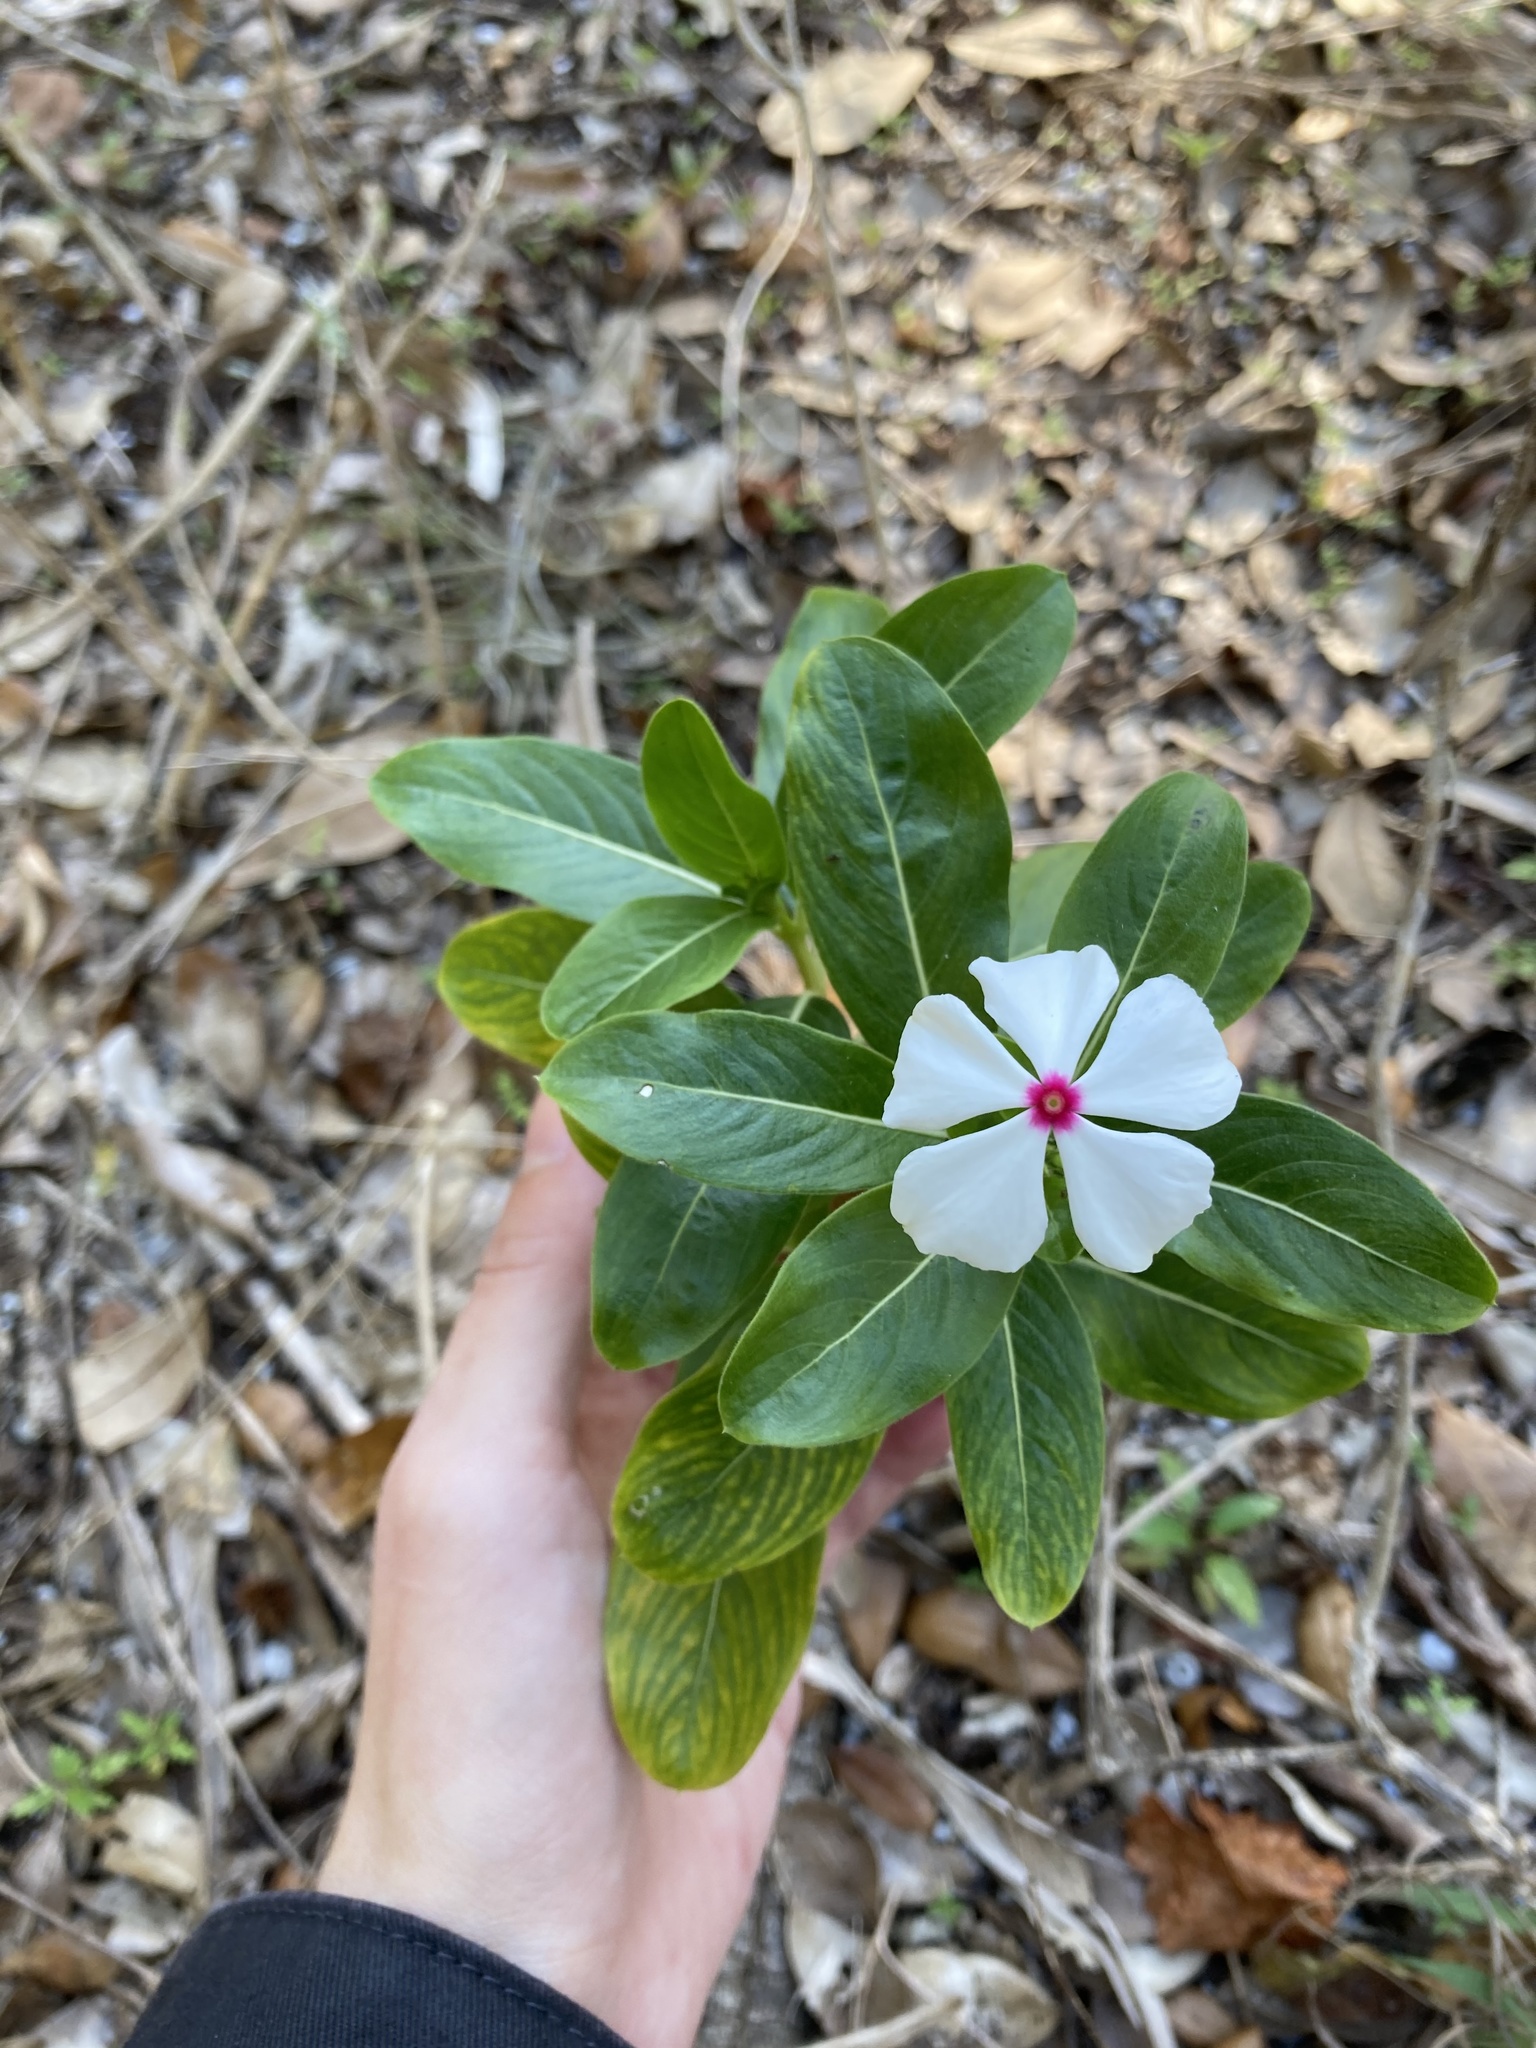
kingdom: Plantae
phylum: Tracheophyta
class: Magnoliopsida
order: Gentianales
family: Apocynaceae
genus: Catharanthus
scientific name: Catharanthus roseus
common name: Madagascar periwinkle
